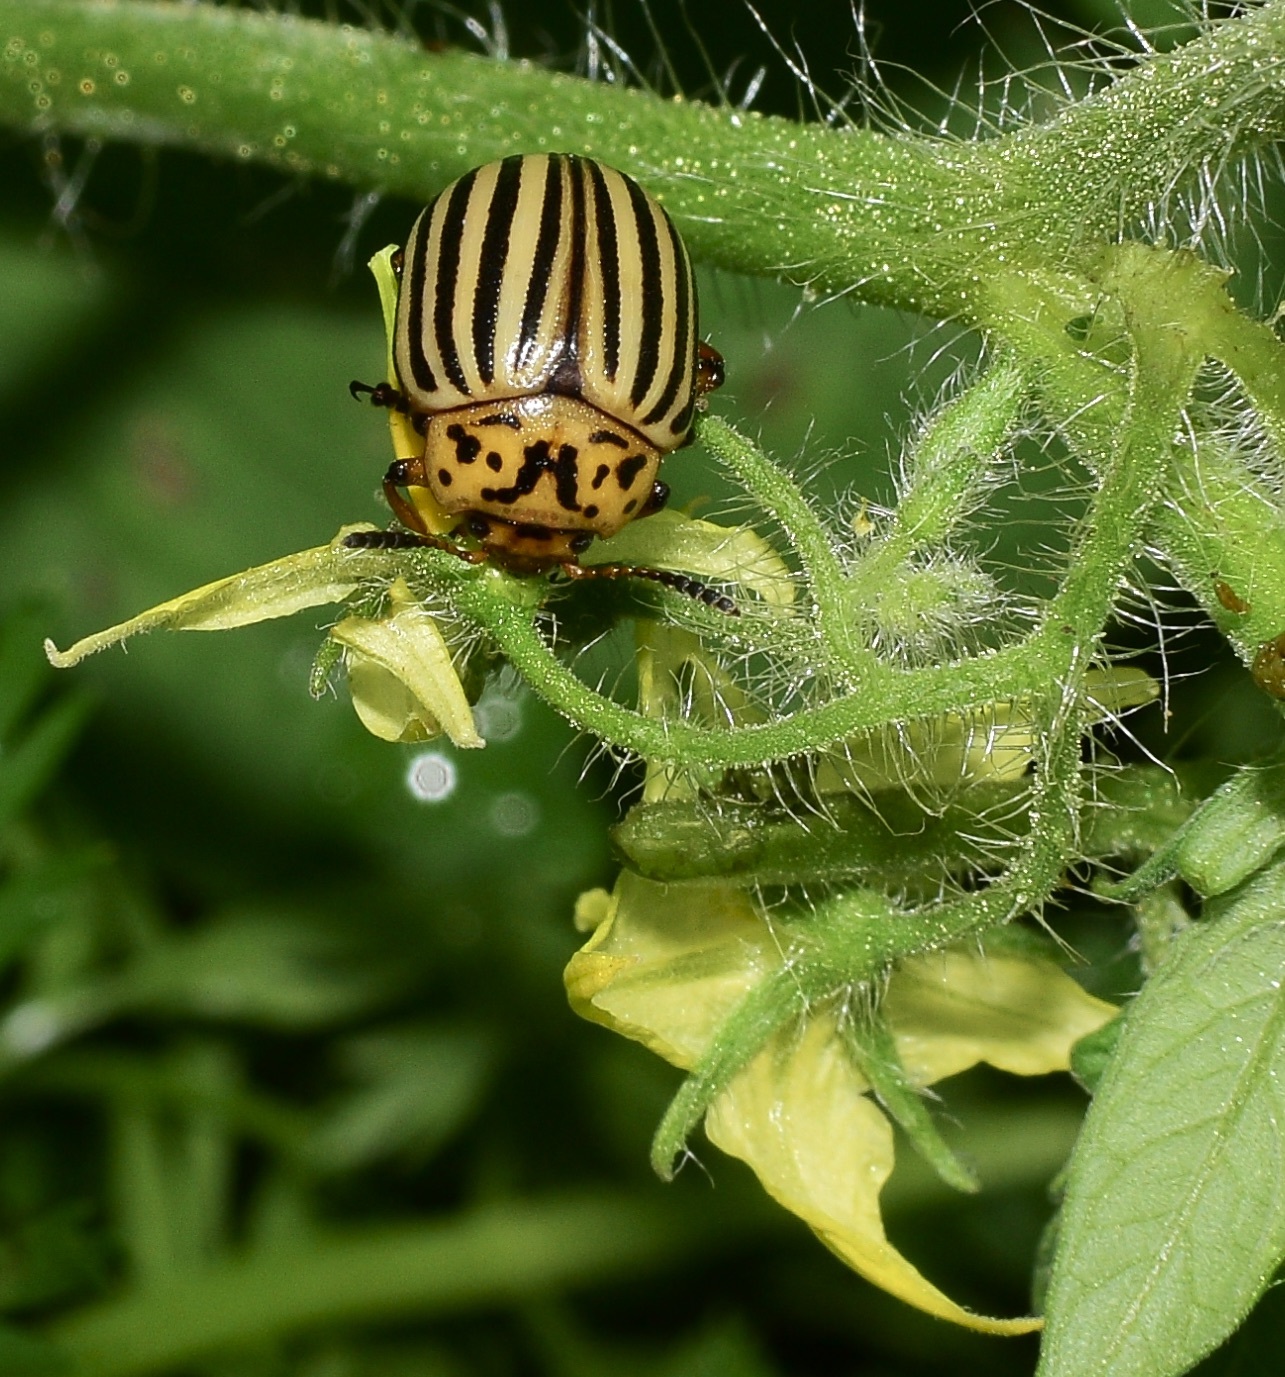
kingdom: Animalia
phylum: Arthropoda
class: Insecta
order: Coleoptera
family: Chrysomelidae
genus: Leptinotarsa
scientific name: Leptinotarsa decemlineata
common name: Colorado potato beetle
